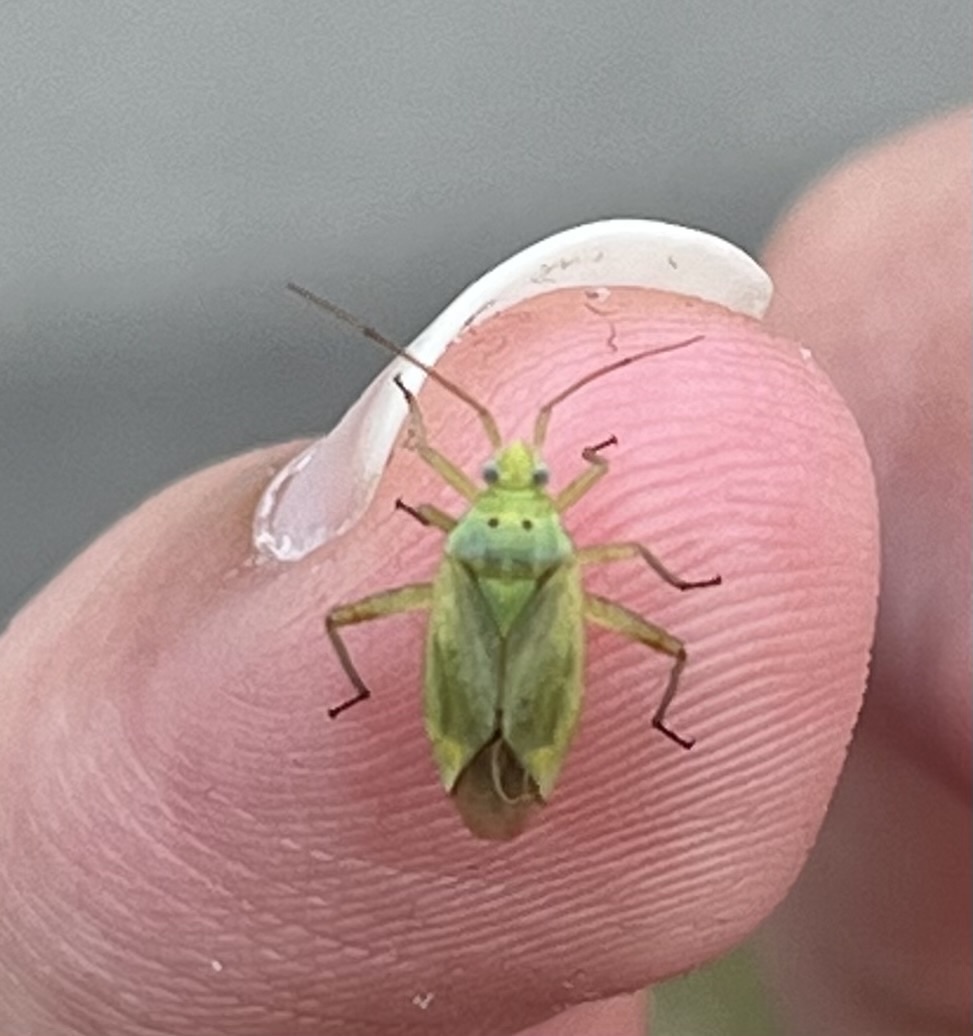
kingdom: Animalia
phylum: Arthropoda
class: Insecta
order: Hemiptera
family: Miridae
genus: Closterotomus
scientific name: Closterotomus norvegicus
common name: Plant bug
